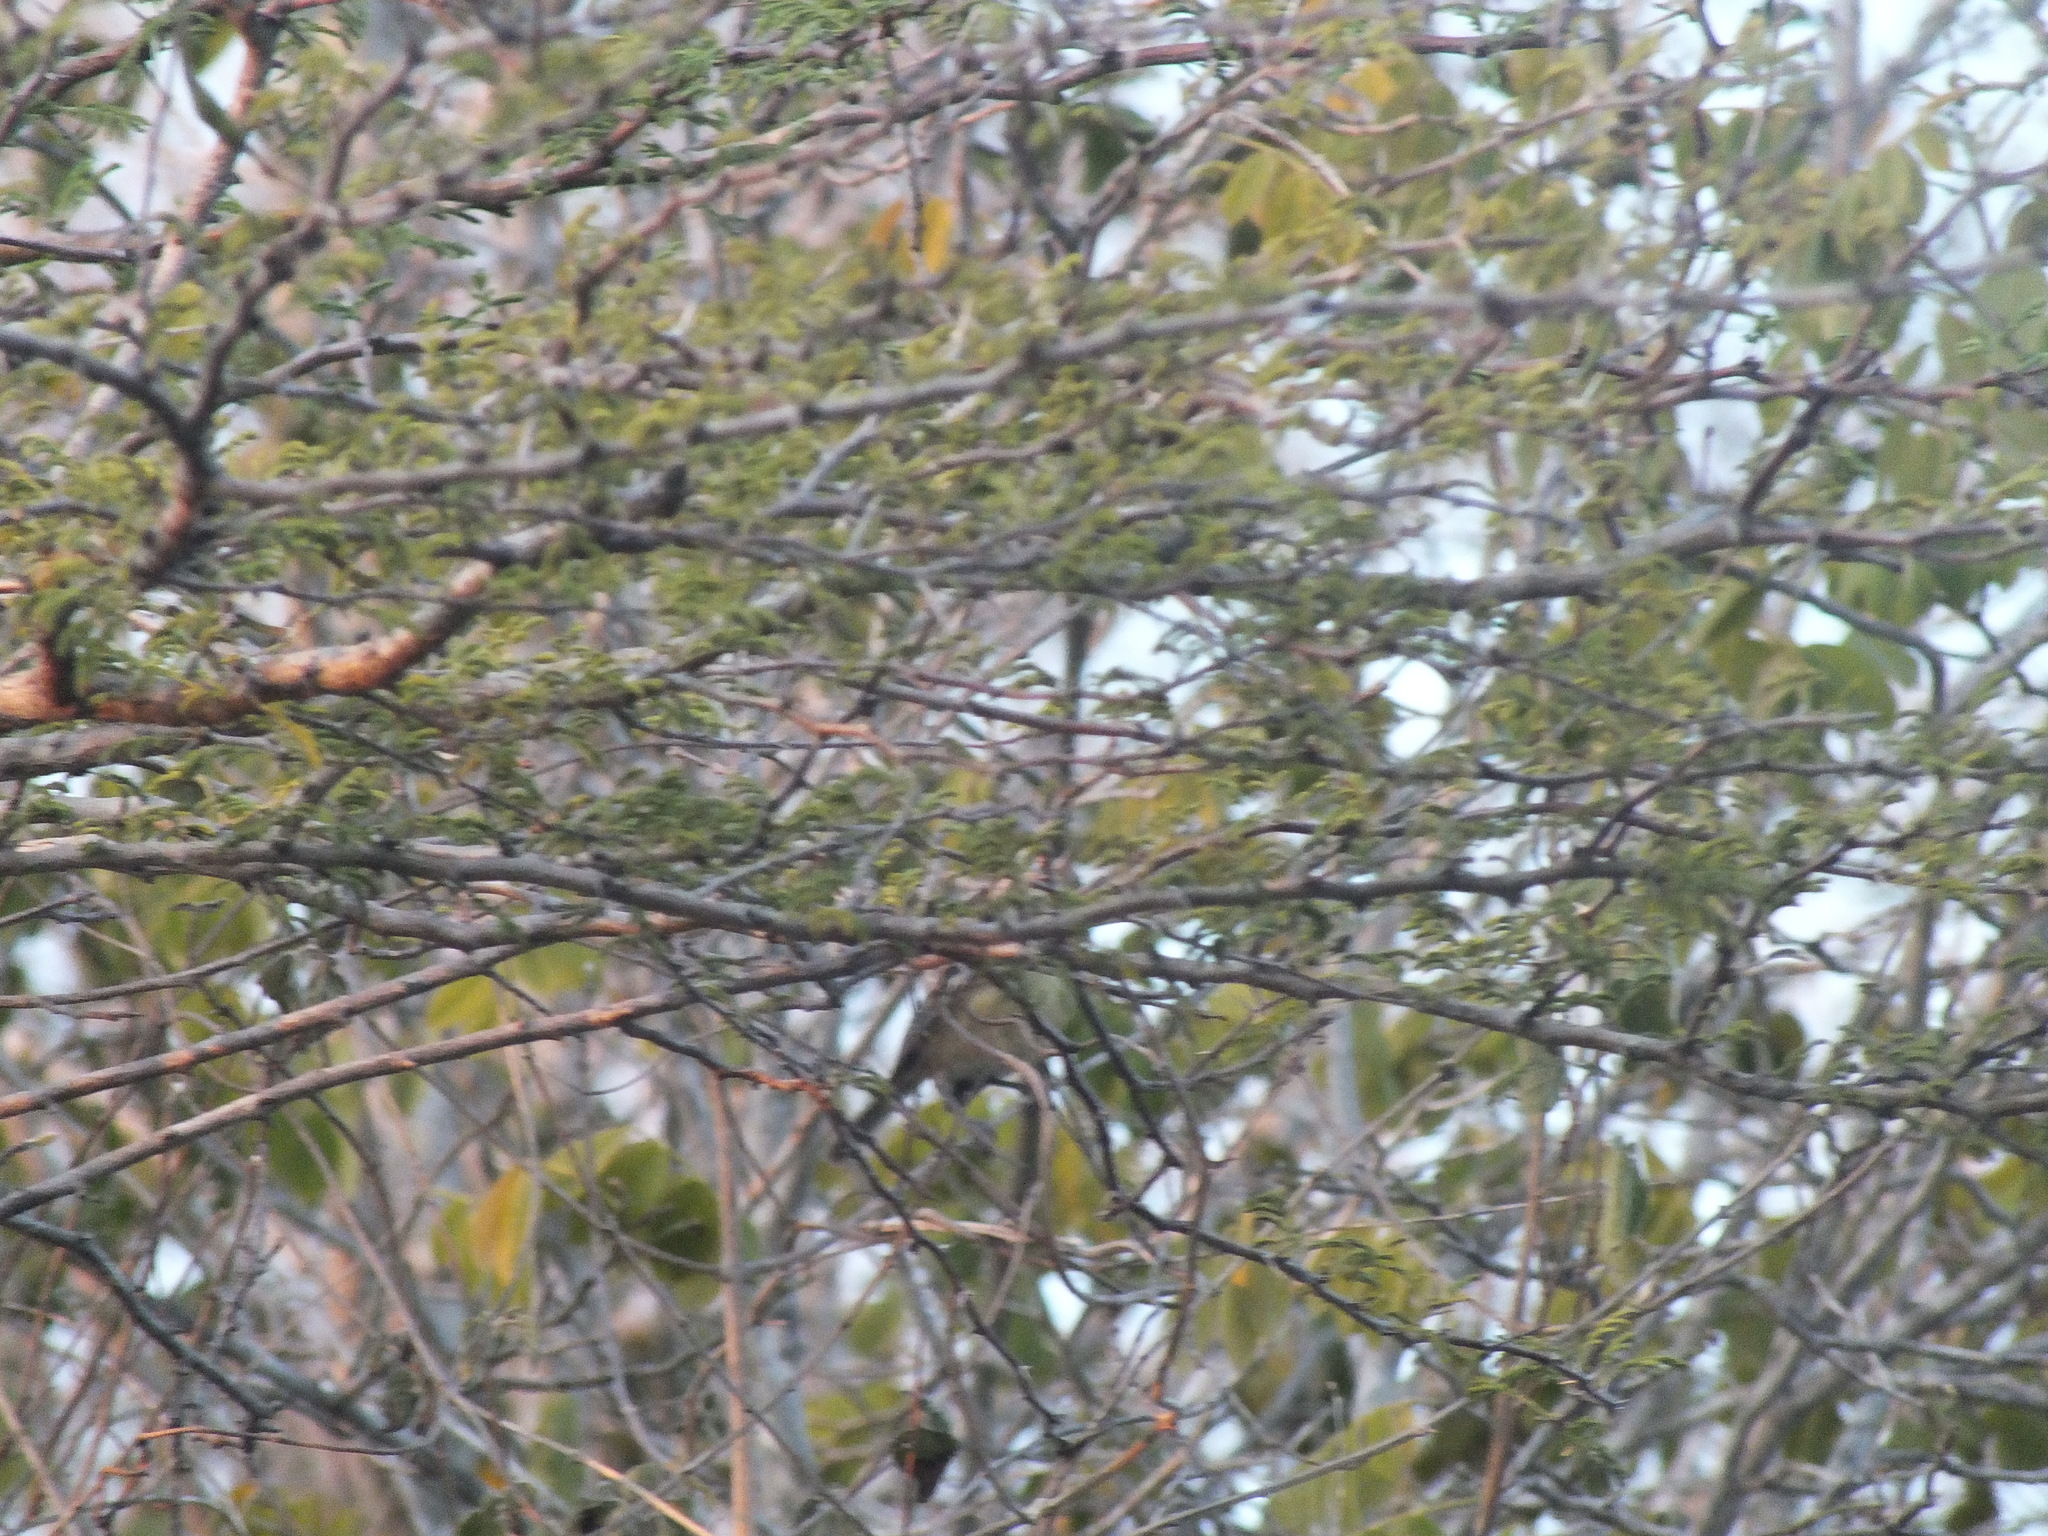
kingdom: Animalia
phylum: Chordata
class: Aves
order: Passeriformes
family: Vireonidae
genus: Vireo
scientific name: Vireo modestus
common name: Jamaican vireo
